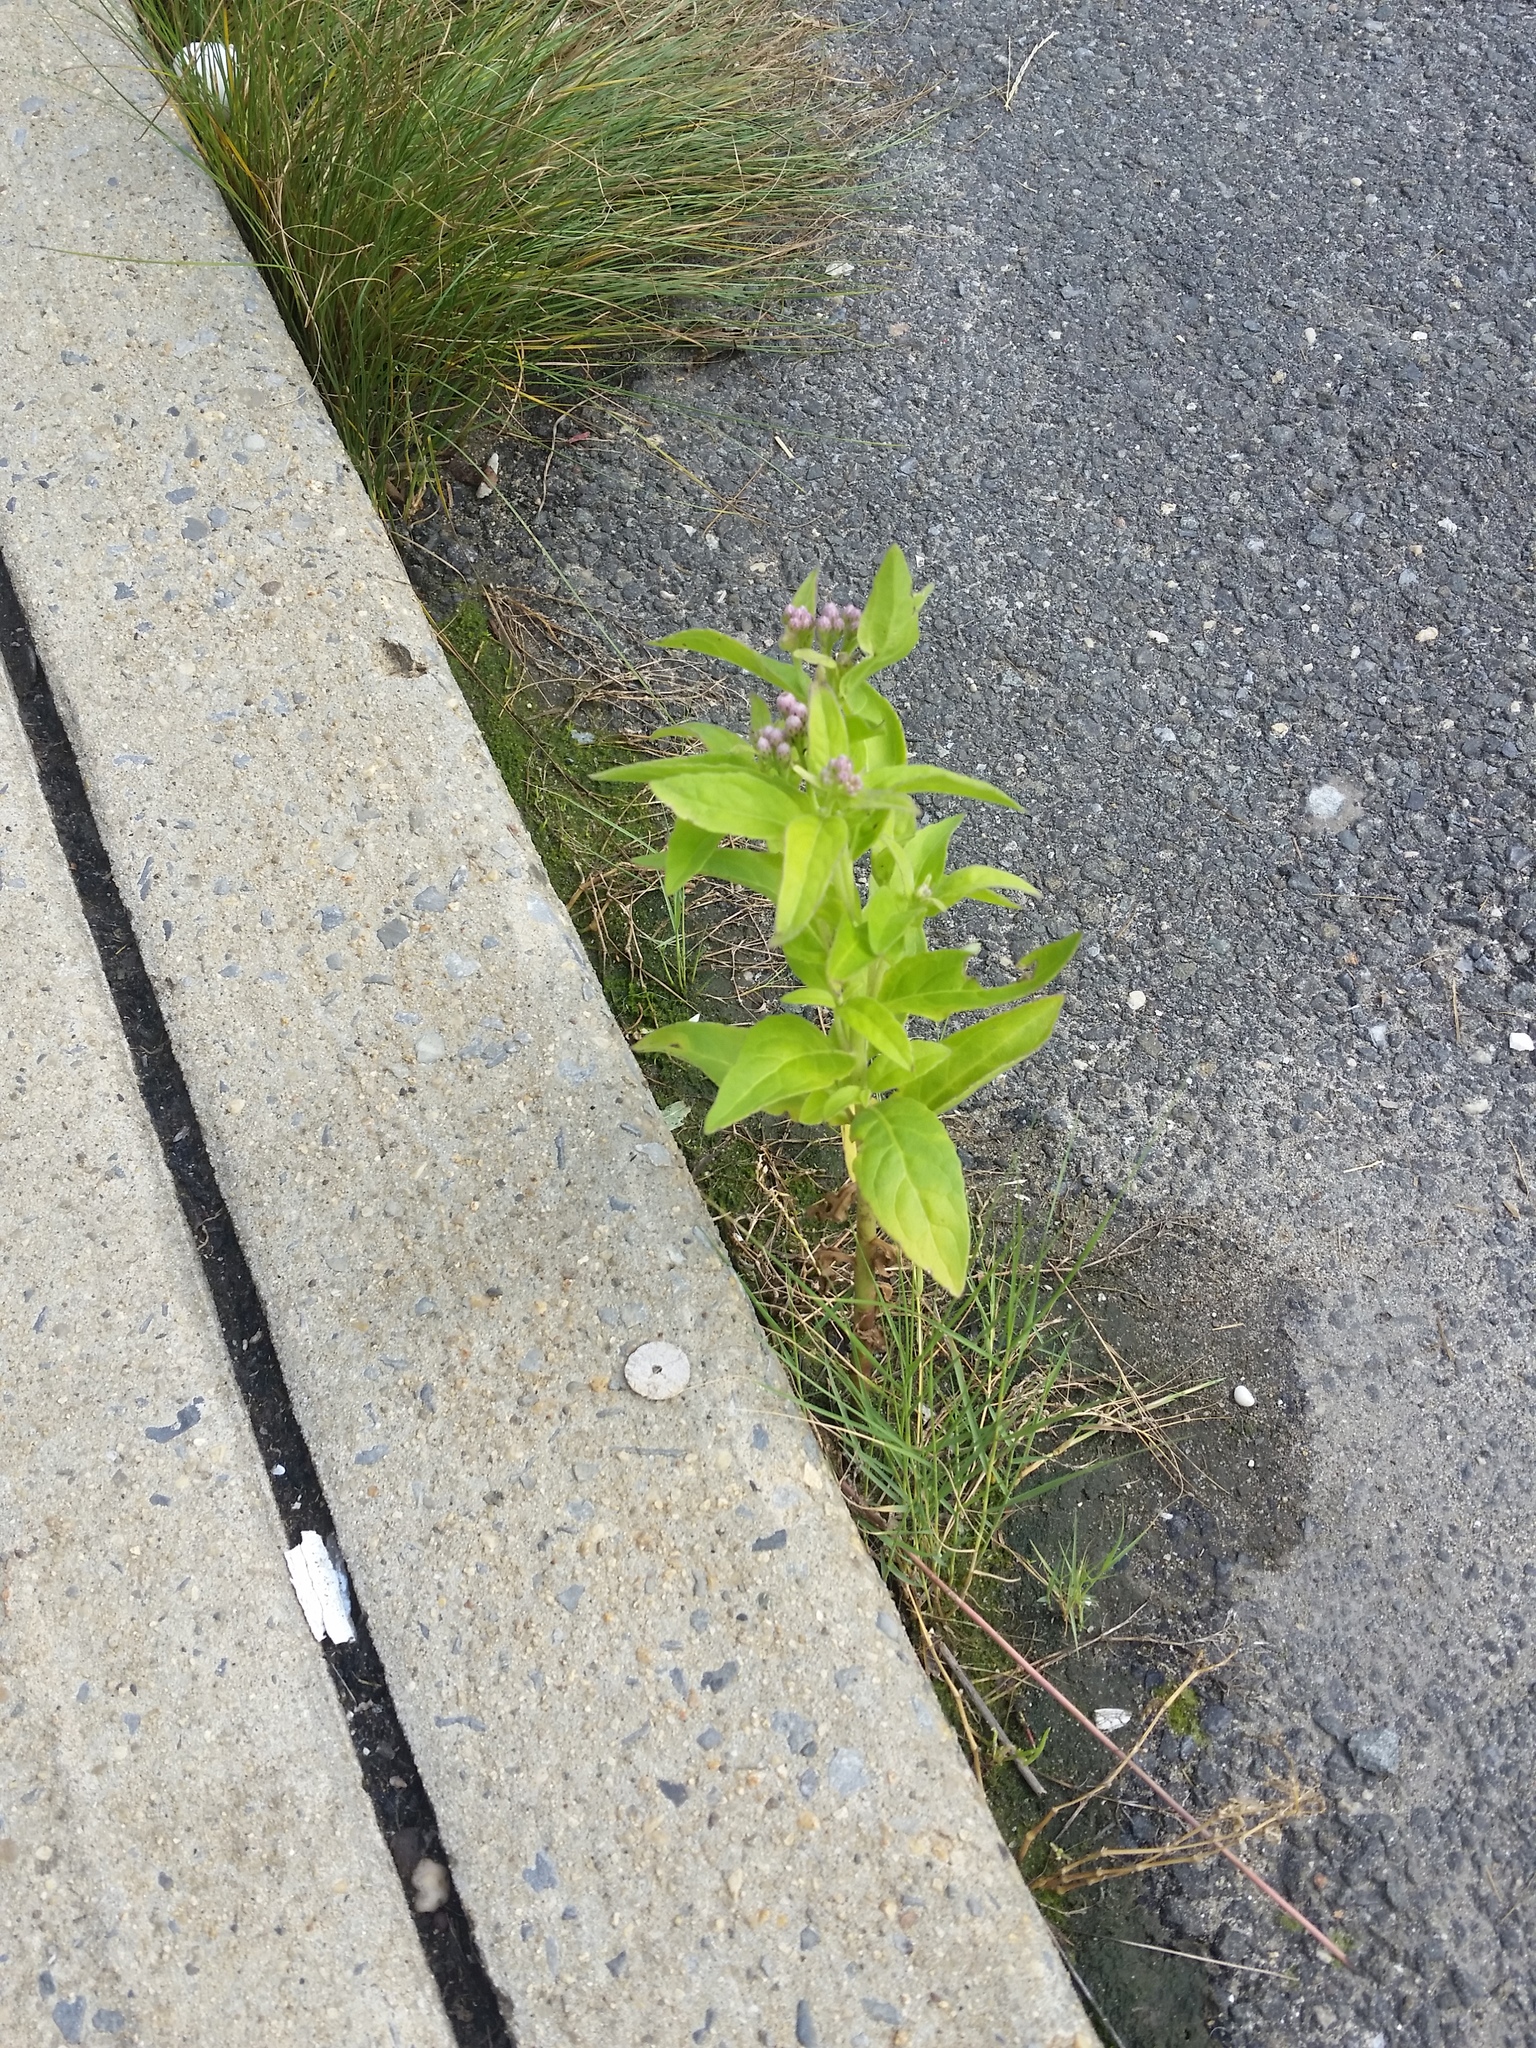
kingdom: Plantae
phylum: Tracheophyta
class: Magnoliopsida
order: Asterales
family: Asteraceae
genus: Pluchea
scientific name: Pluchea odorata
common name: Saltmarsh fleabane
